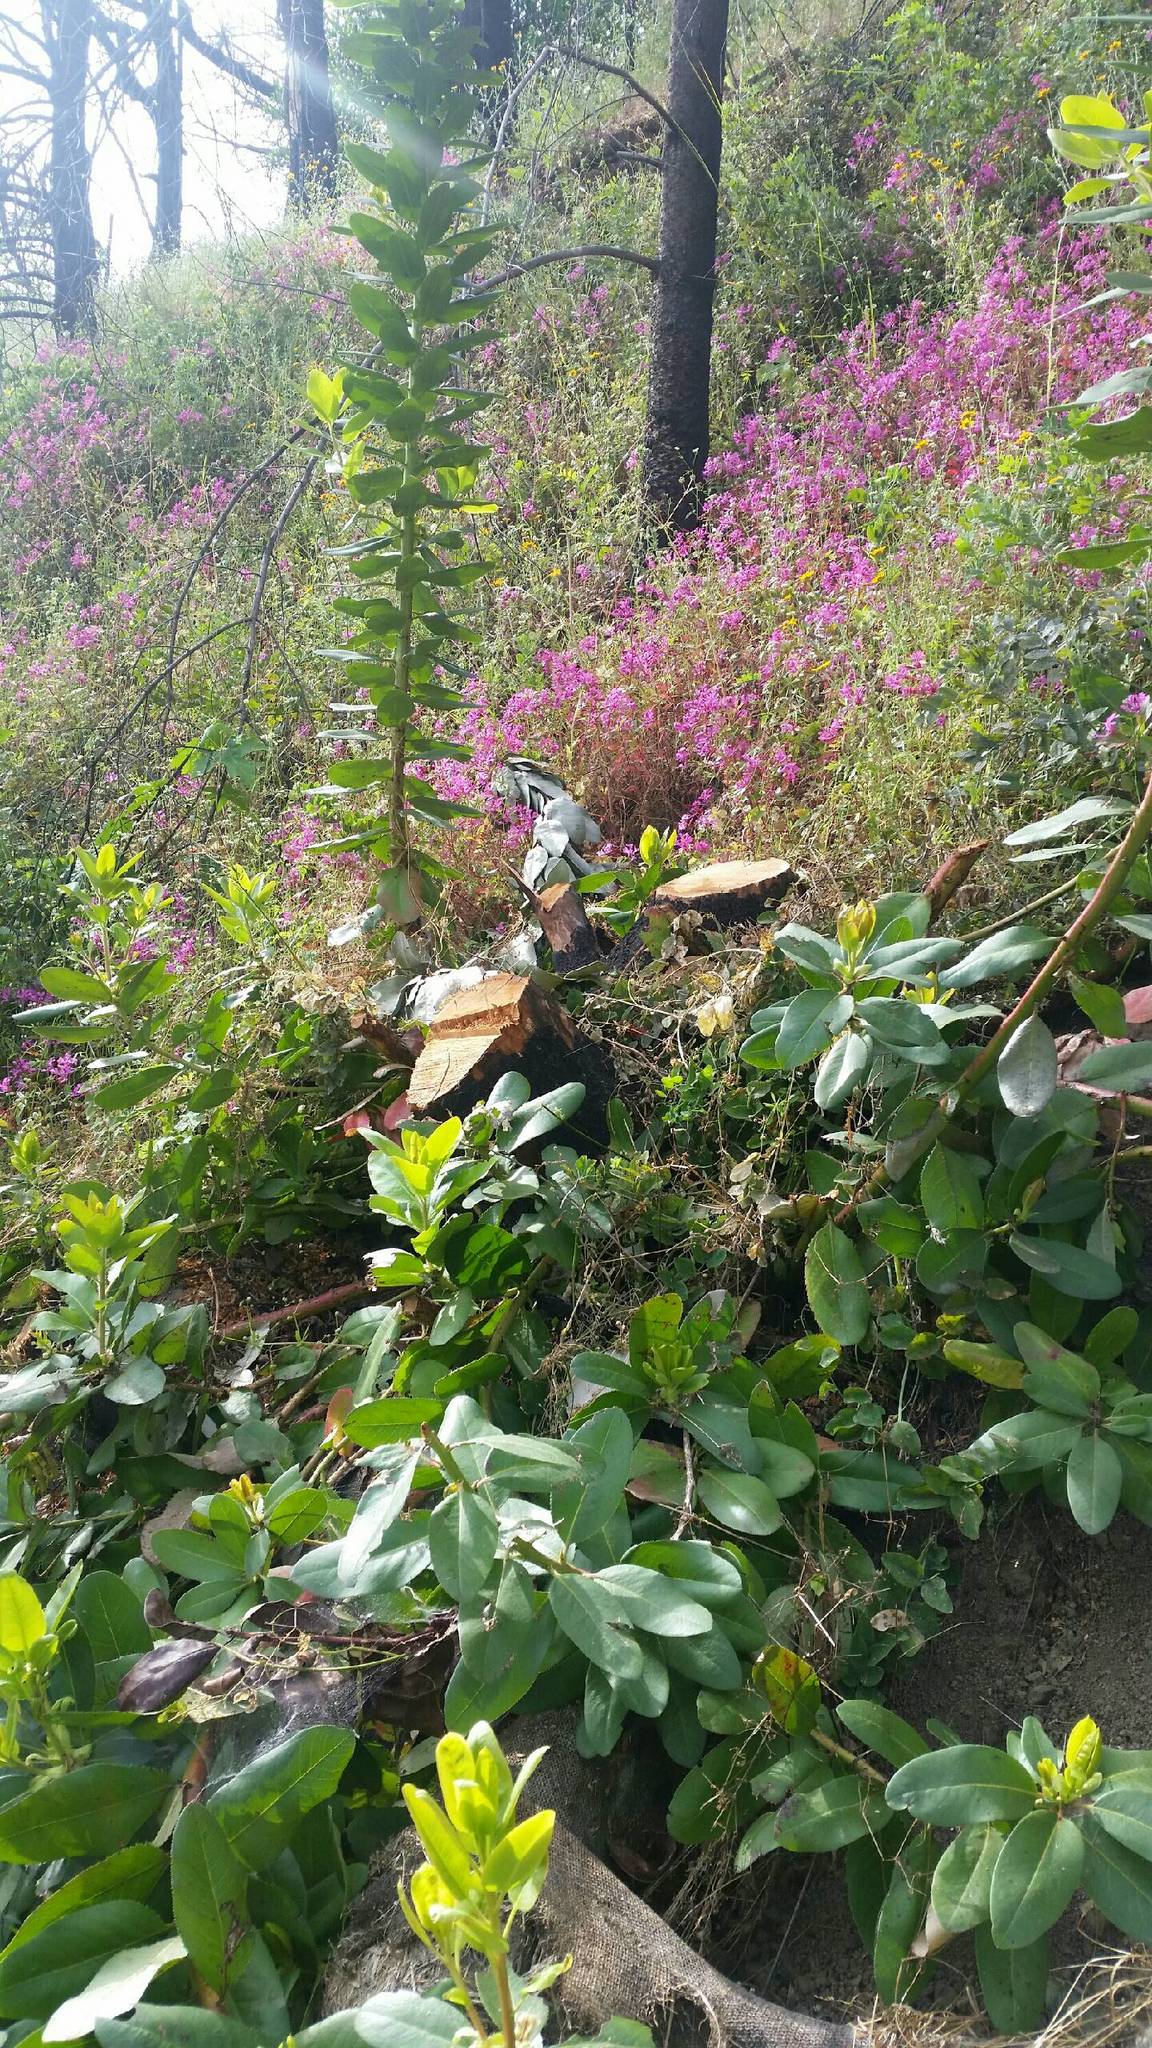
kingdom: Plantae
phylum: Tracheophyta
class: Magnoliopsida
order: Ericales
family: Ericaceae
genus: Arbutus
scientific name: Arbutus menziesii
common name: Pacific madrone
